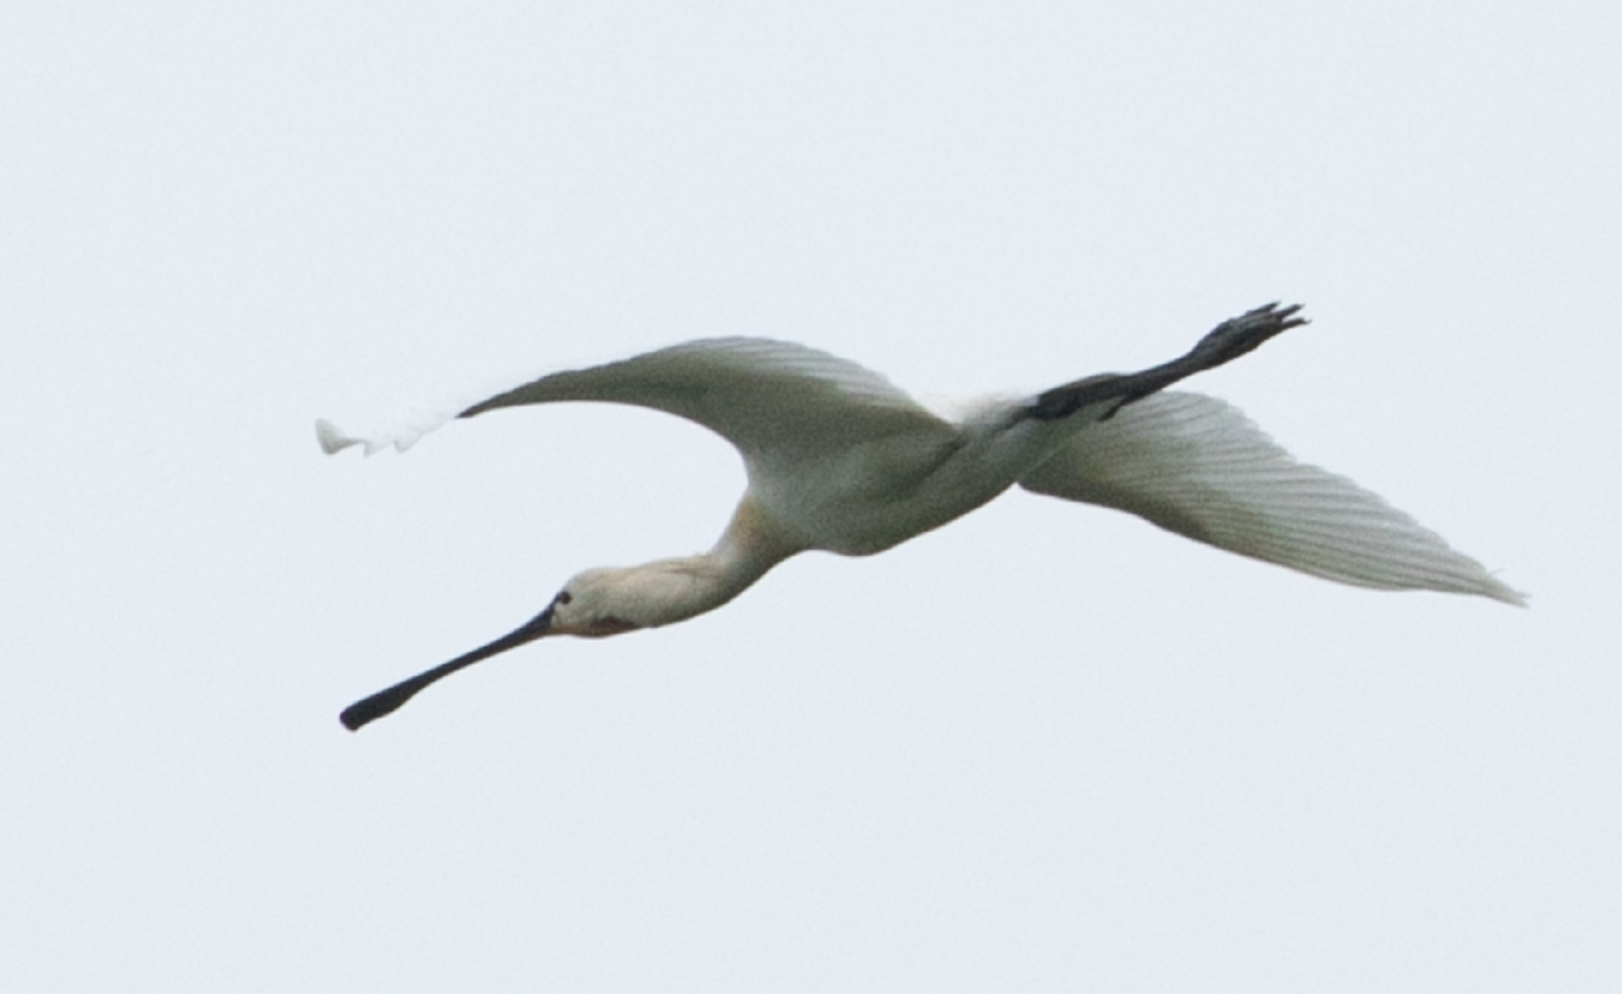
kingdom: Animalia
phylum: Chordata
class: Aves
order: Pelecaniformes
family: Threskiornithidae
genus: Platalea
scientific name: Platalea leucorodia
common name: Eurasian spoonbill
